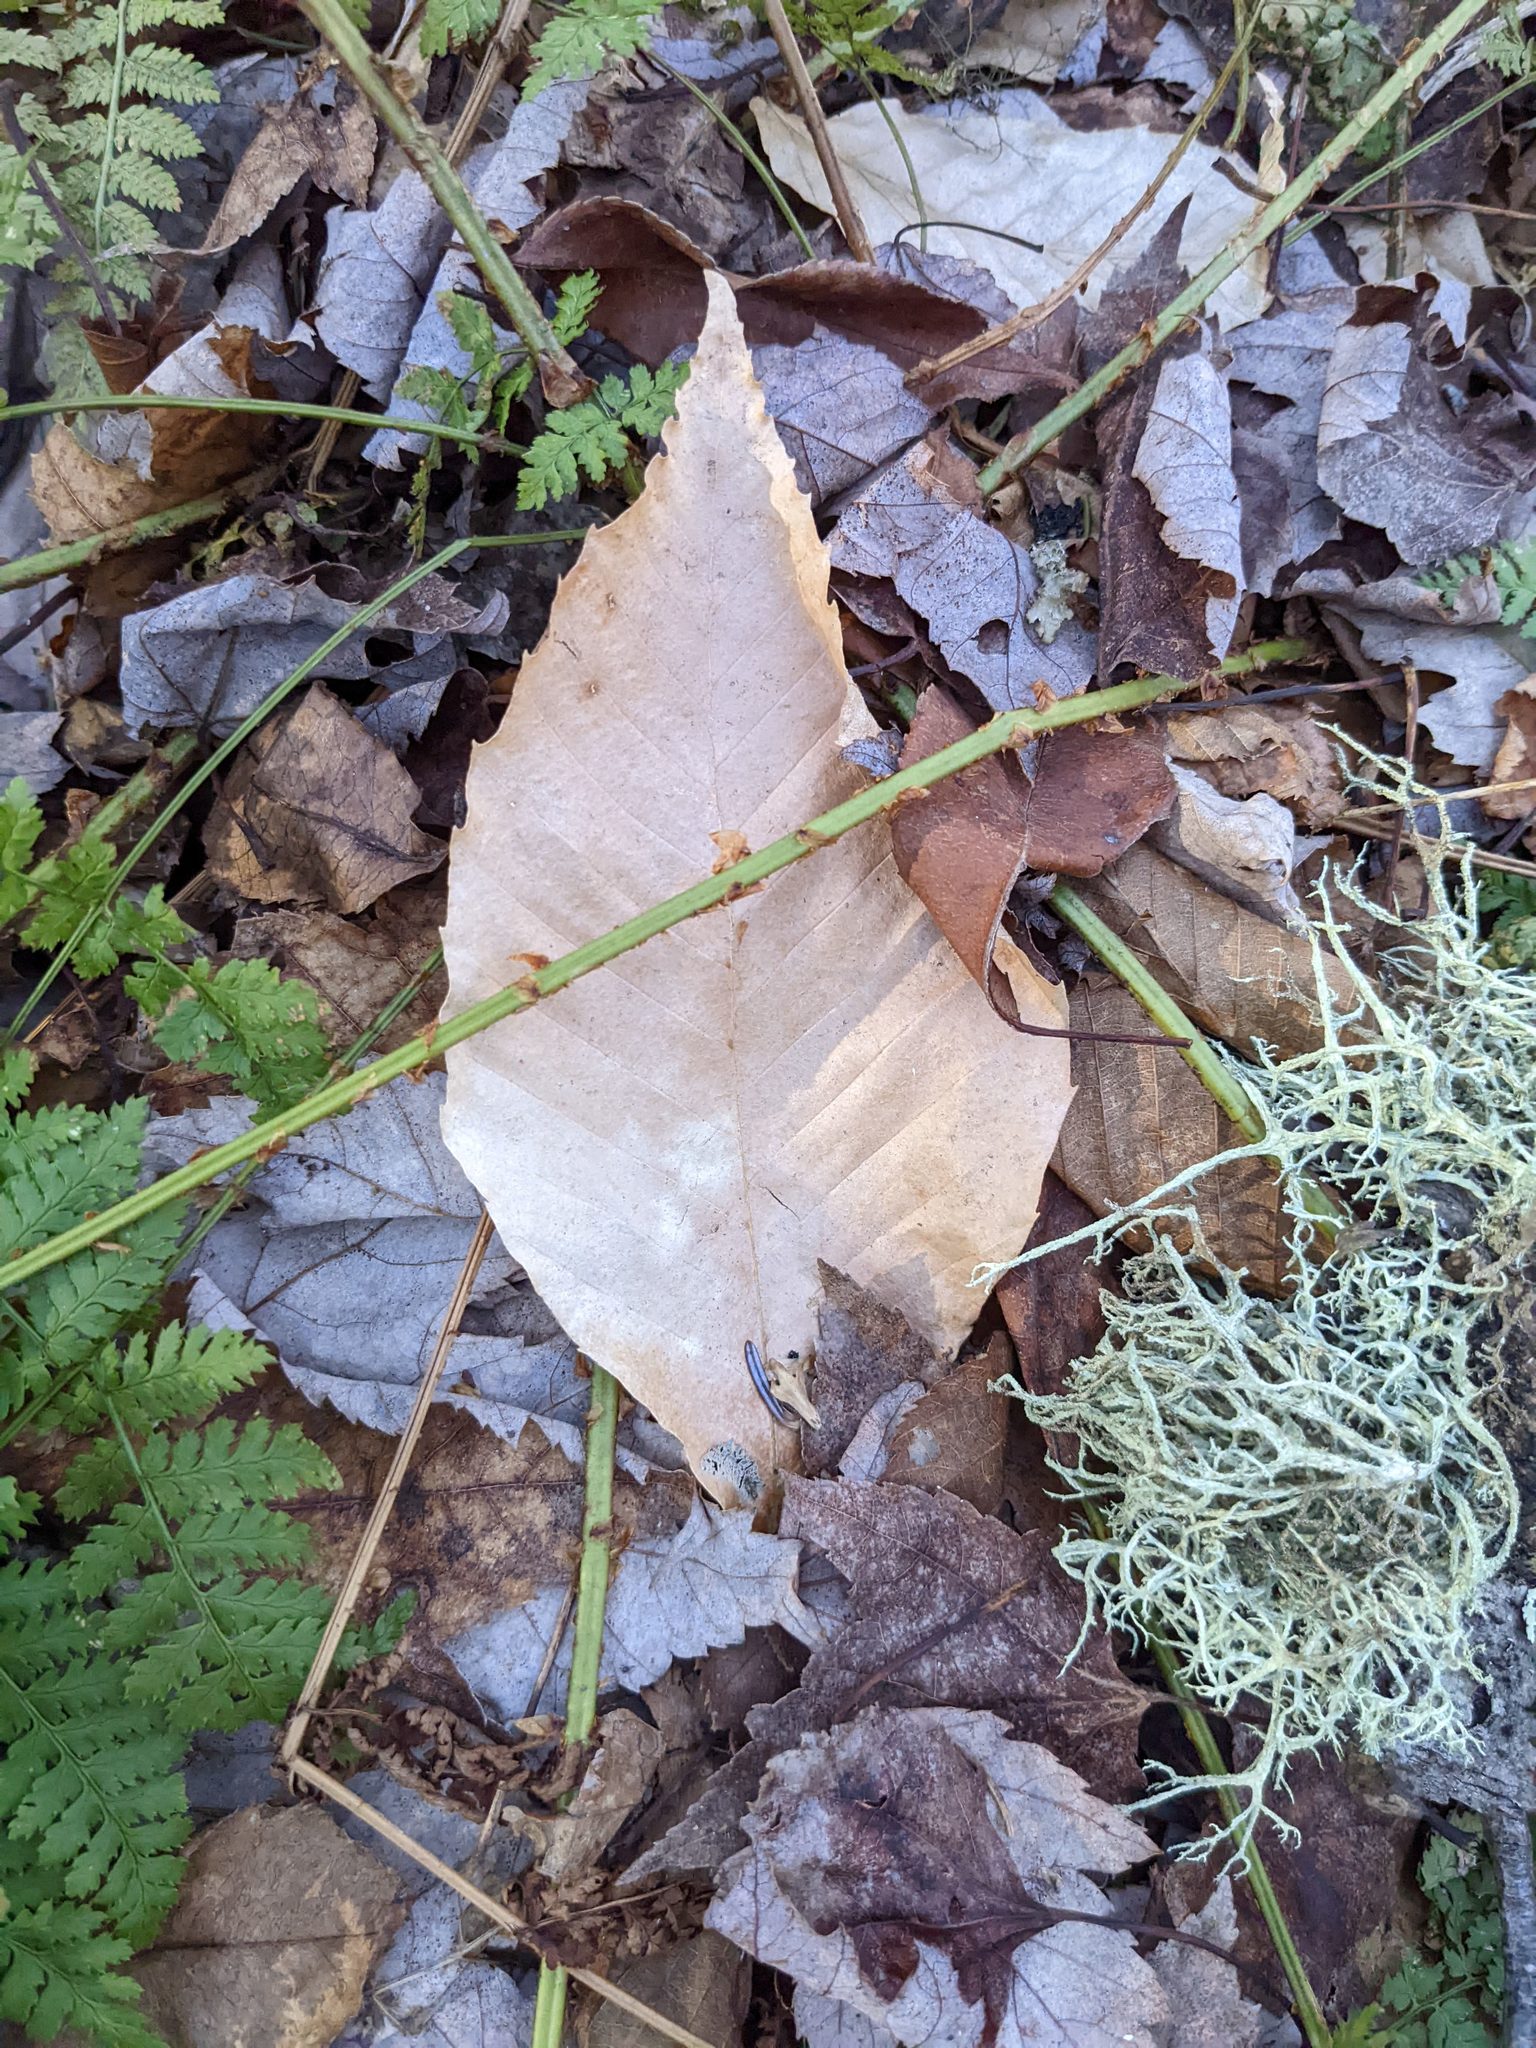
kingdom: Plantae
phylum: Tracheophyta
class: Magnoliopsida
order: Fagales
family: Fagaceae
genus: Fagus
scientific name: Fagus grandifolia
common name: American beech
